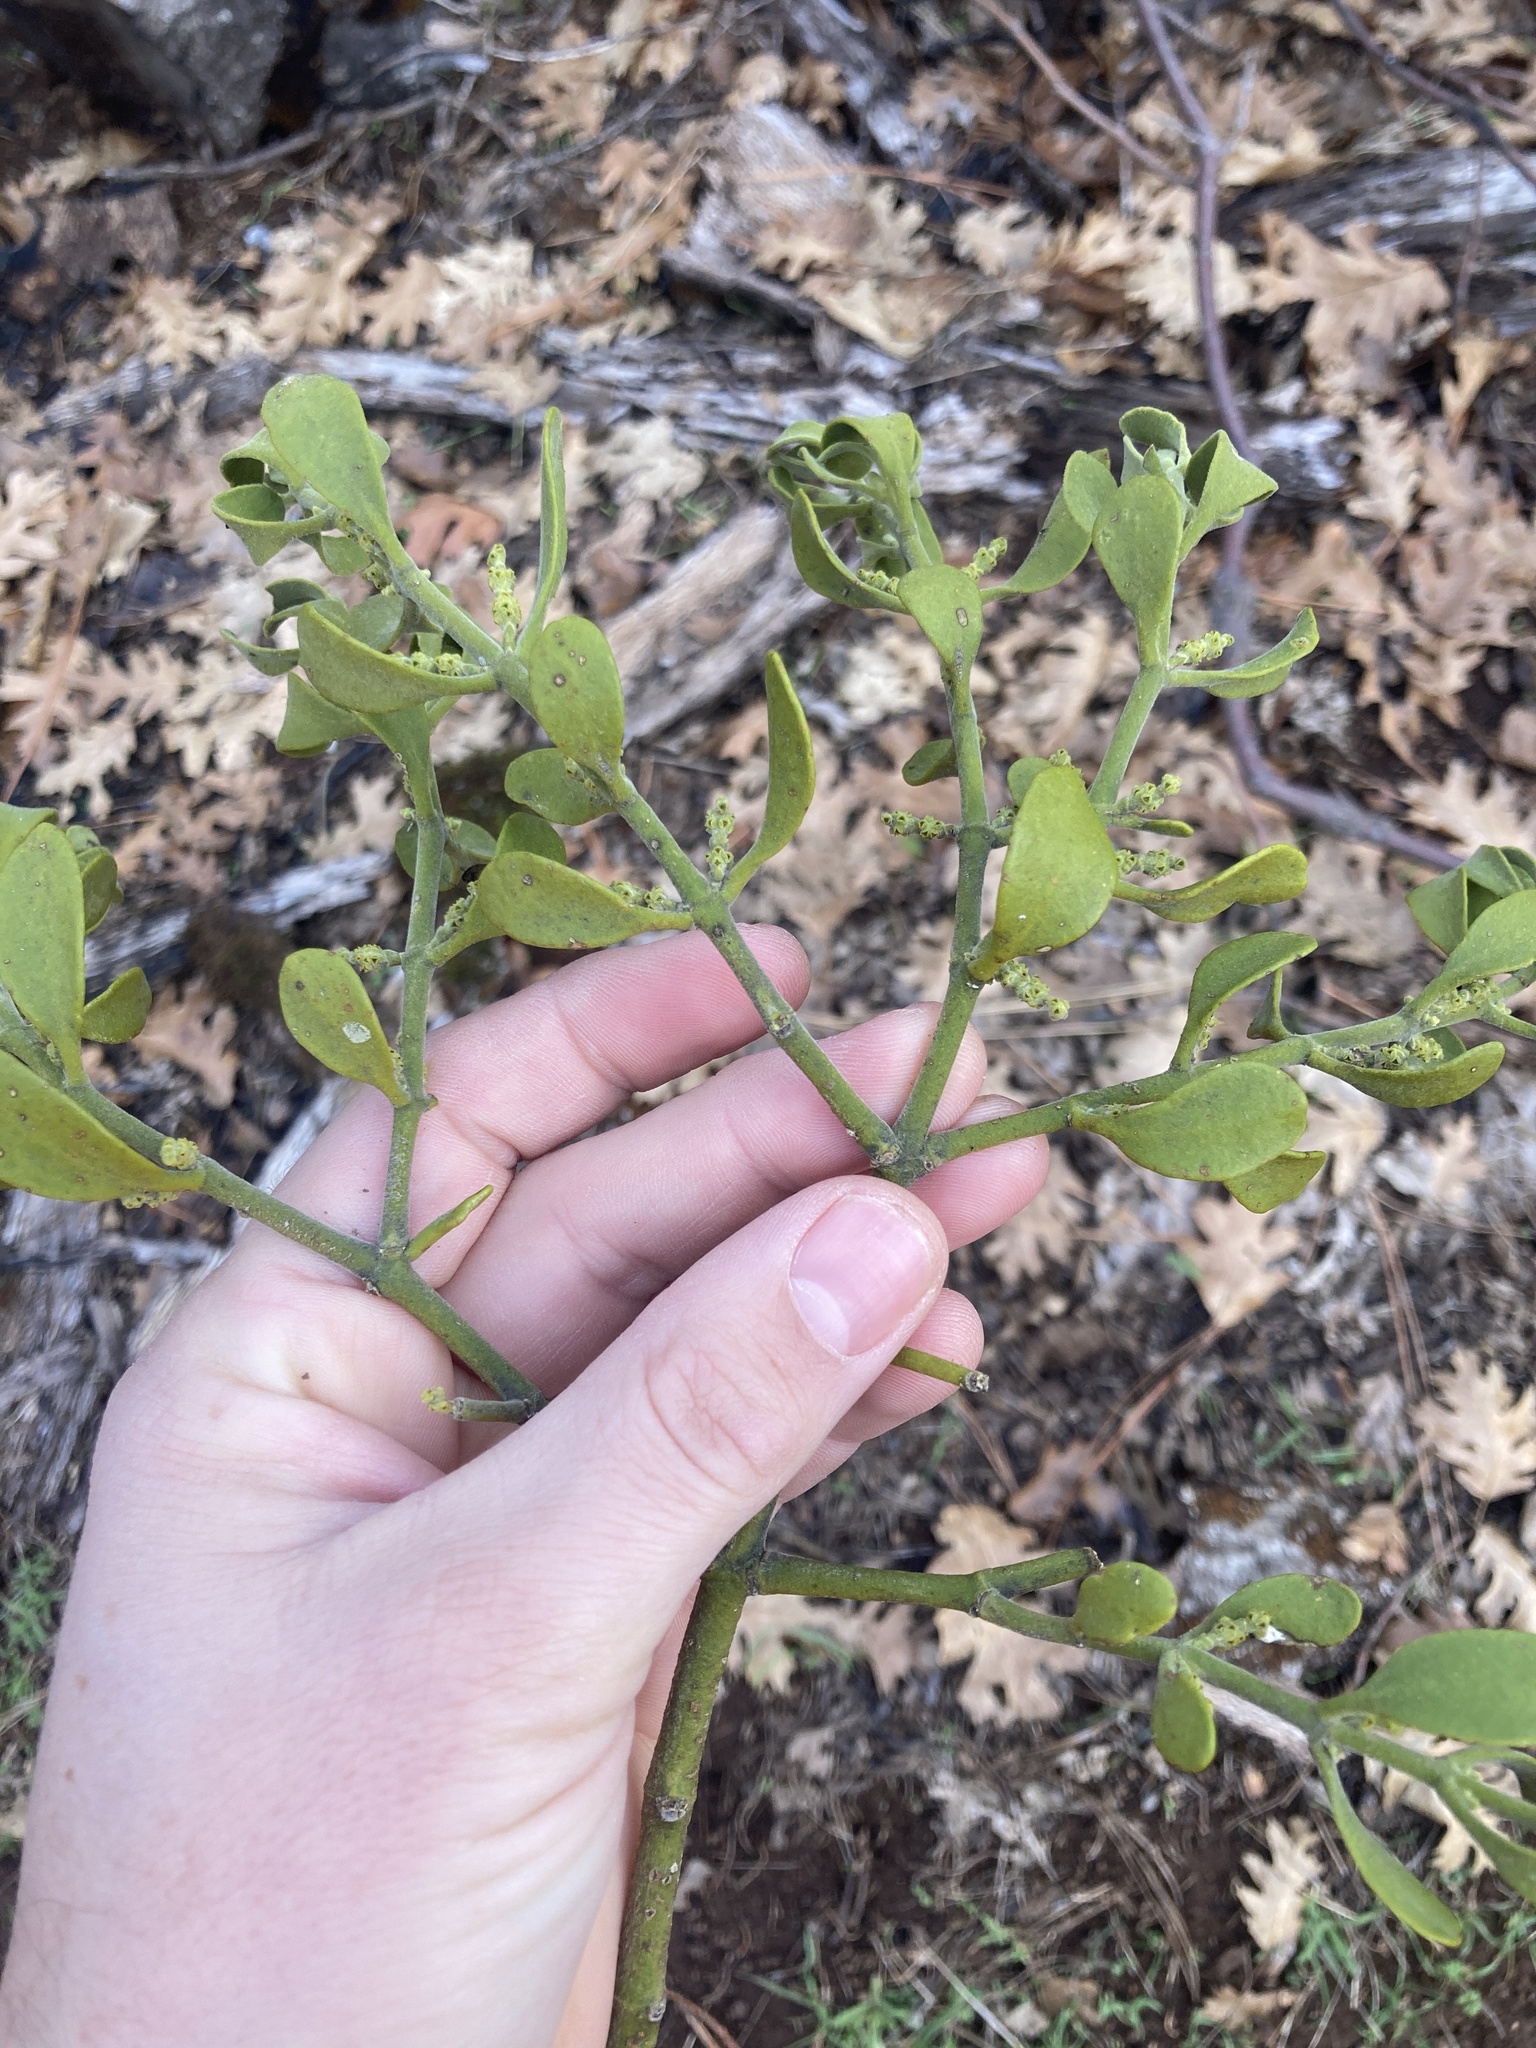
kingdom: Plantae
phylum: Tracheophyta
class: Magnoliopsida
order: Santalales
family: Viscaceae
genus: Phoradendron
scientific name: Phoradendron leucarpum
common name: Pacific mistletoe
